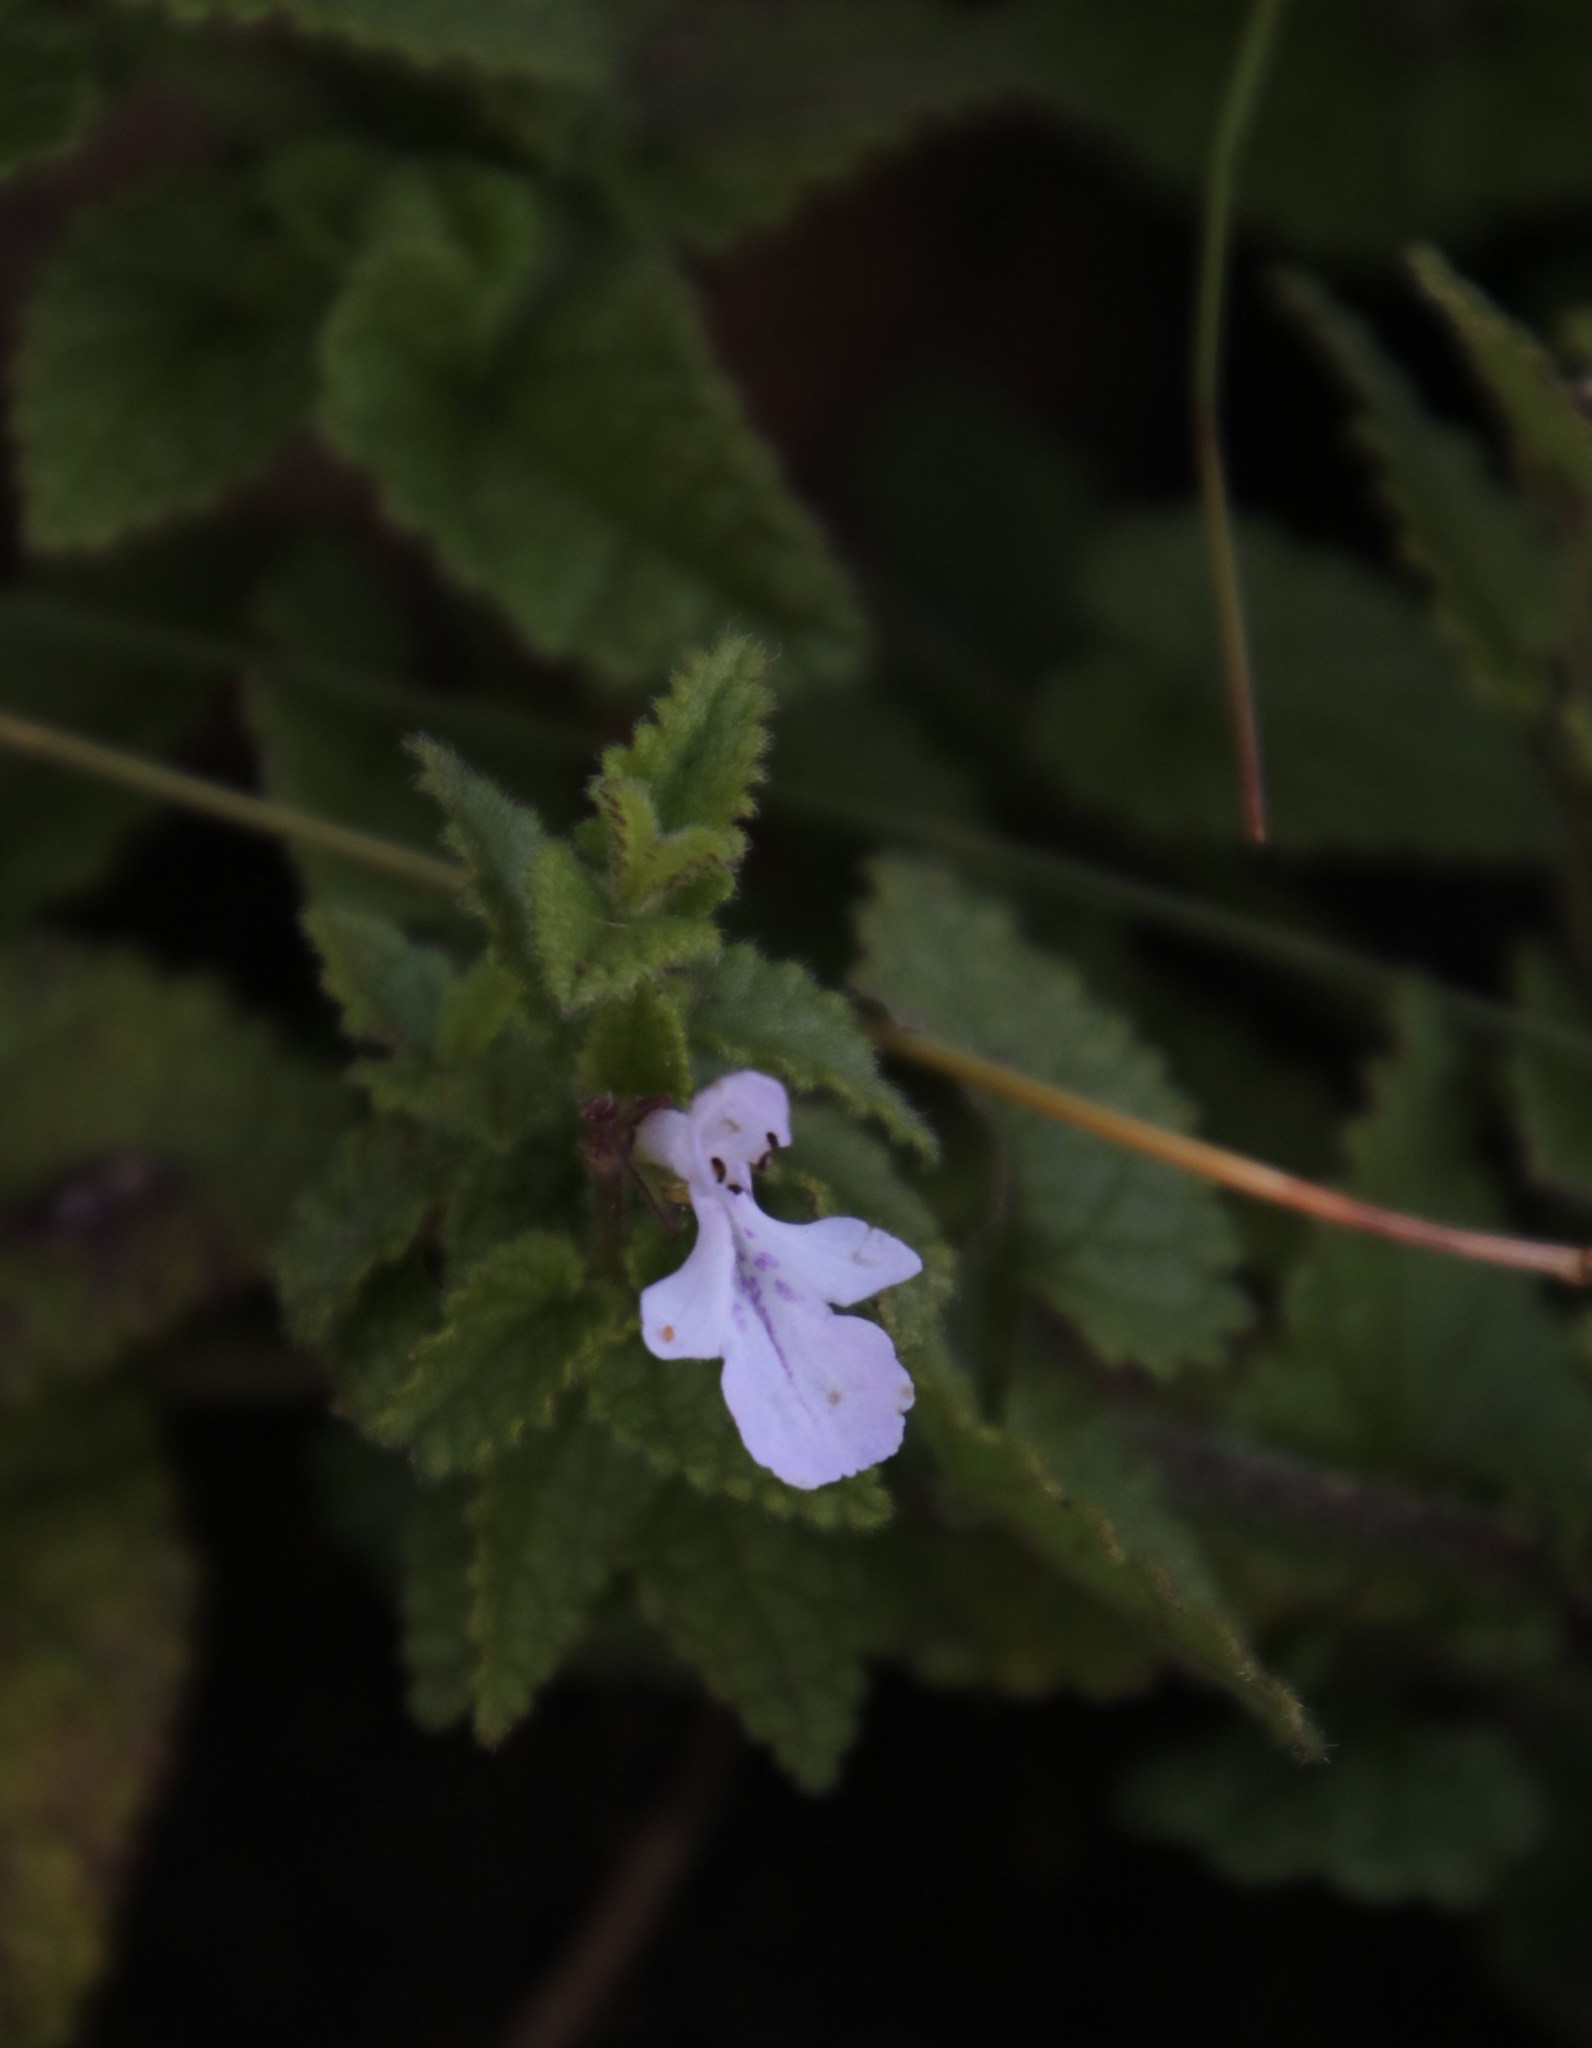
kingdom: Plantae
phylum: Tracheophyta
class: Magnoliopsida
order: Lamiales
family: Lamiaceae
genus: Stachys
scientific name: Stachys aethiopica
